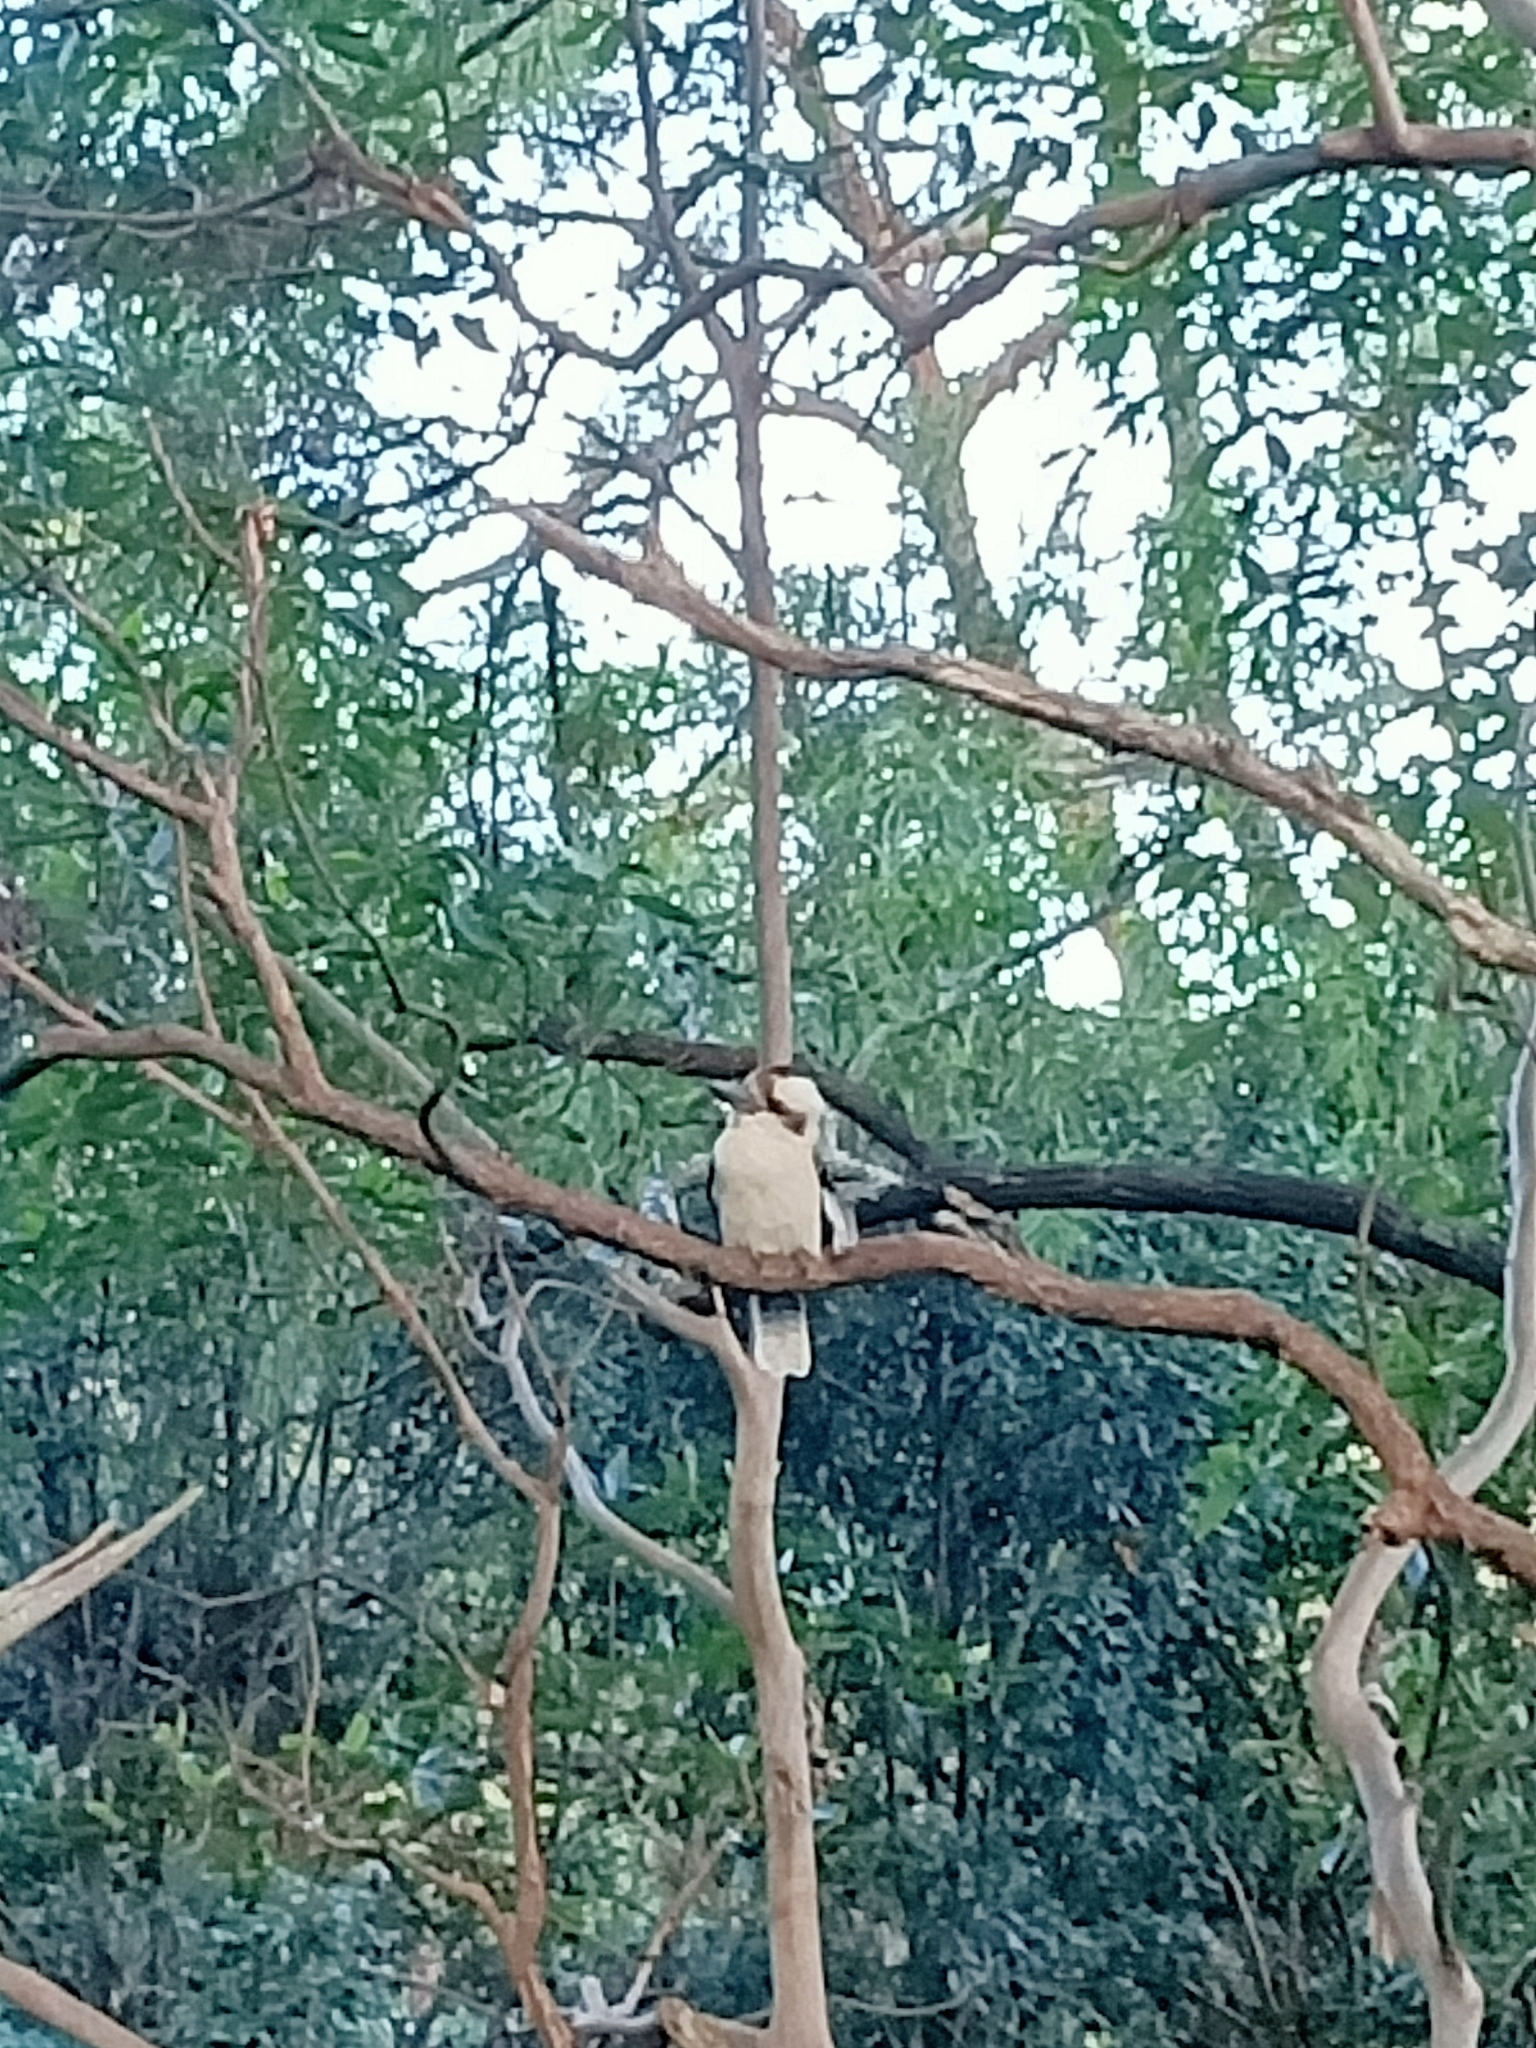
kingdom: Animalia
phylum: Chordata
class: Aves
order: Coraciiformes
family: Alcedinidae
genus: Dacelo
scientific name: Dacelo novaeguineae
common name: Laughing kookaburra
